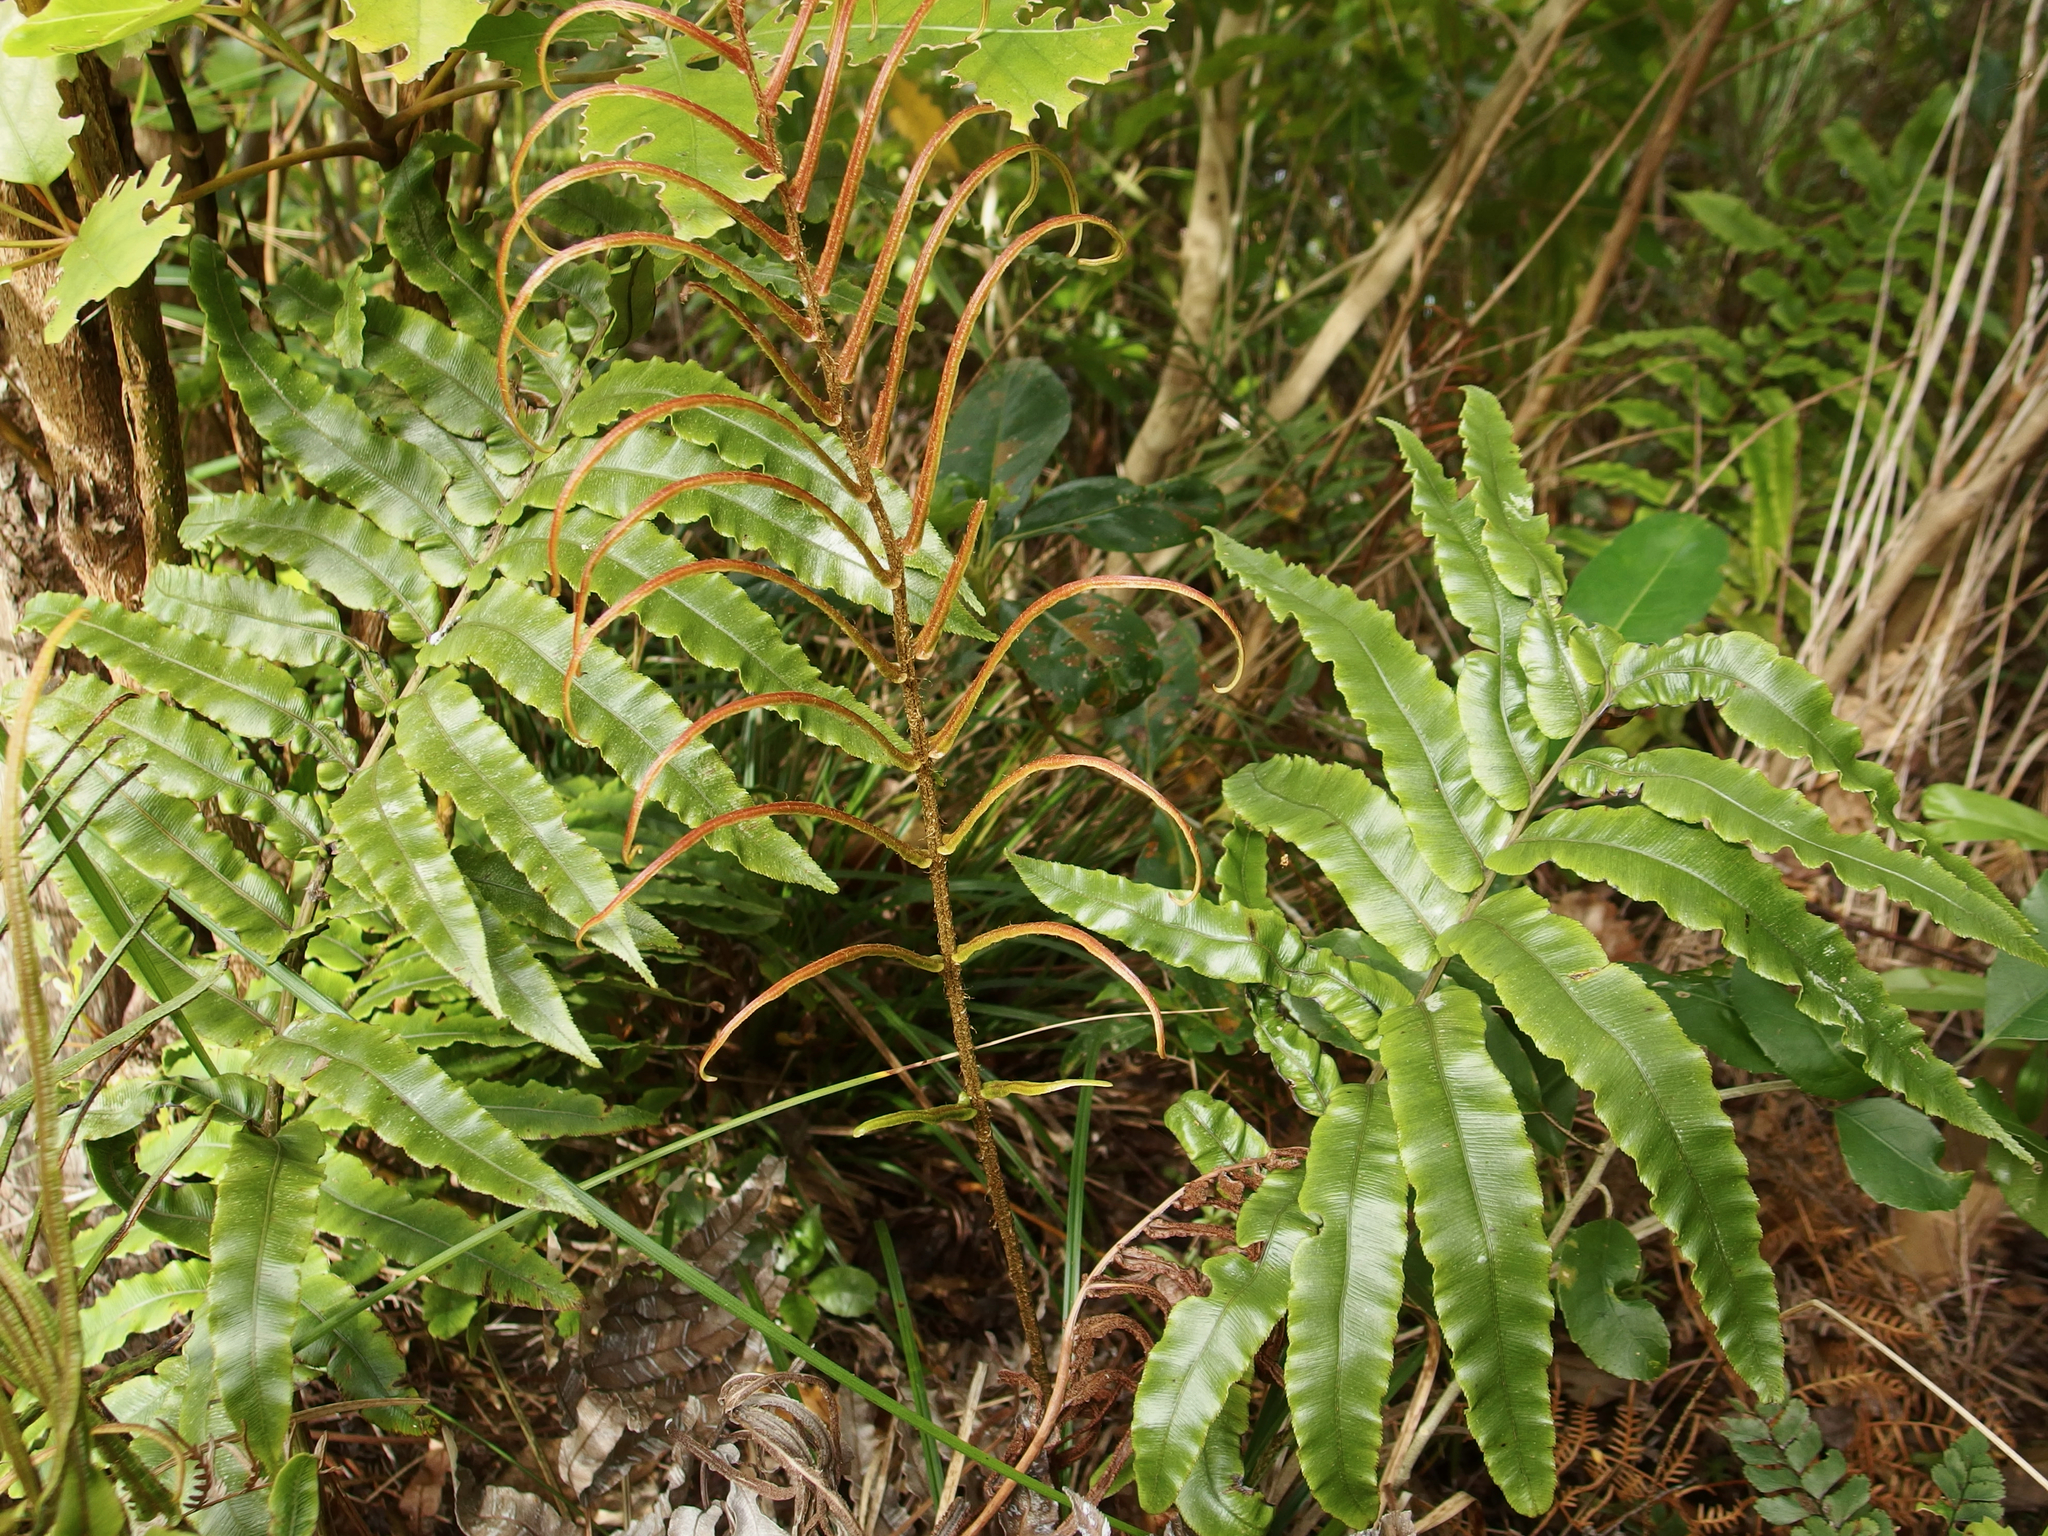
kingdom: Plantae
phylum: Tracheophyta
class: Polypodiopsida
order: Polypodiales
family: Blechnaceae
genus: Parablechnum
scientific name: Parablechnum procerum
